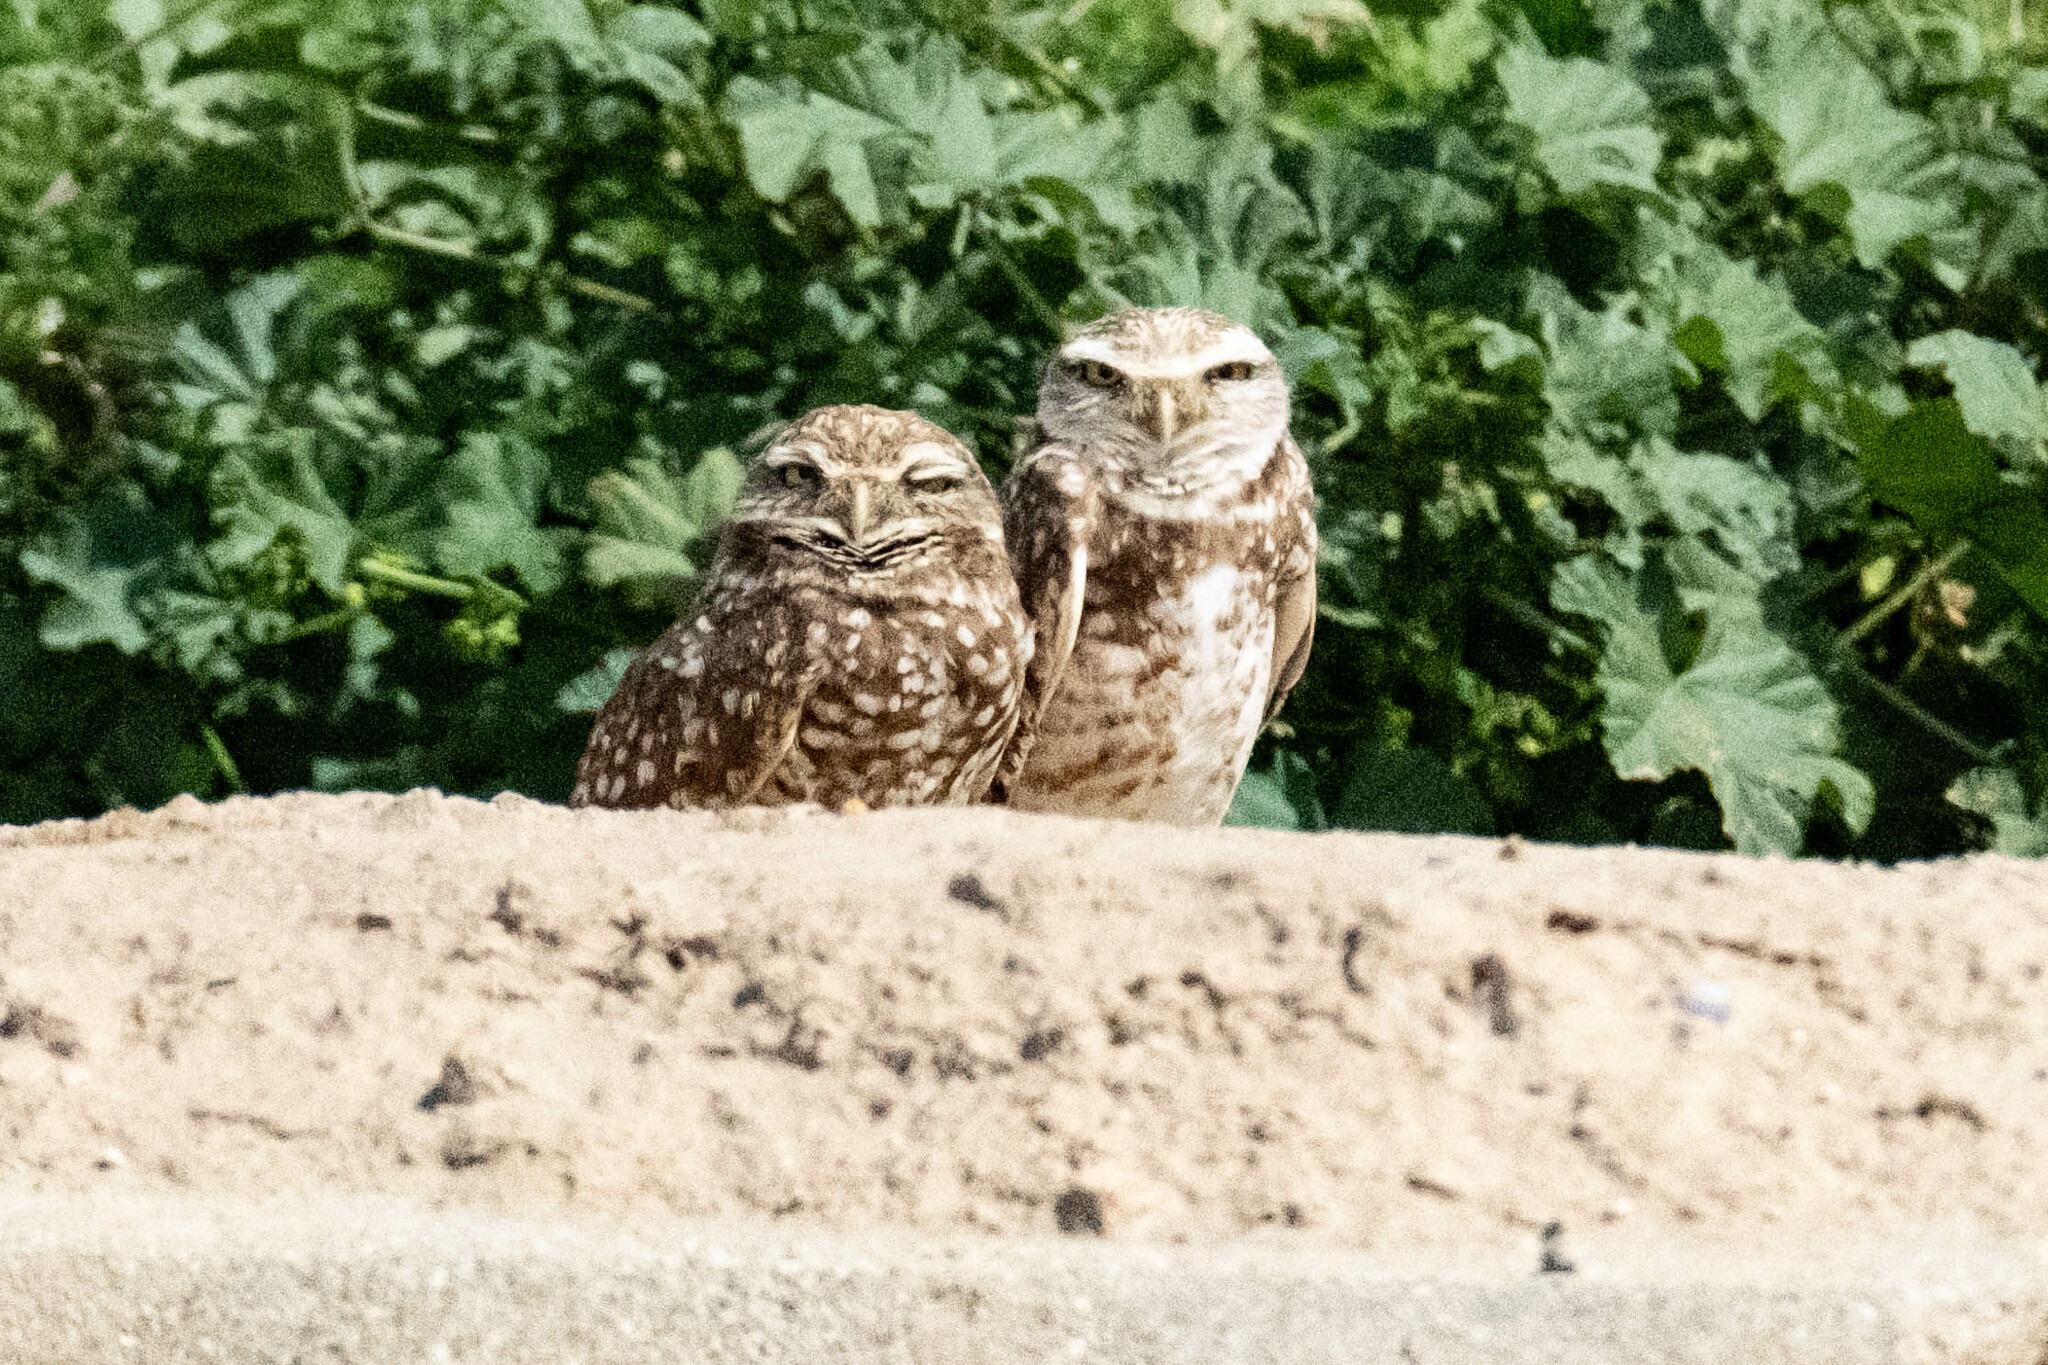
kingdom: Animalia
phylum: Chordata
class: Aves
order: Strigiformes
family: Strigidae
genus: Athene
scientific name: Athene cunicularia
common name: Burrowing owl
